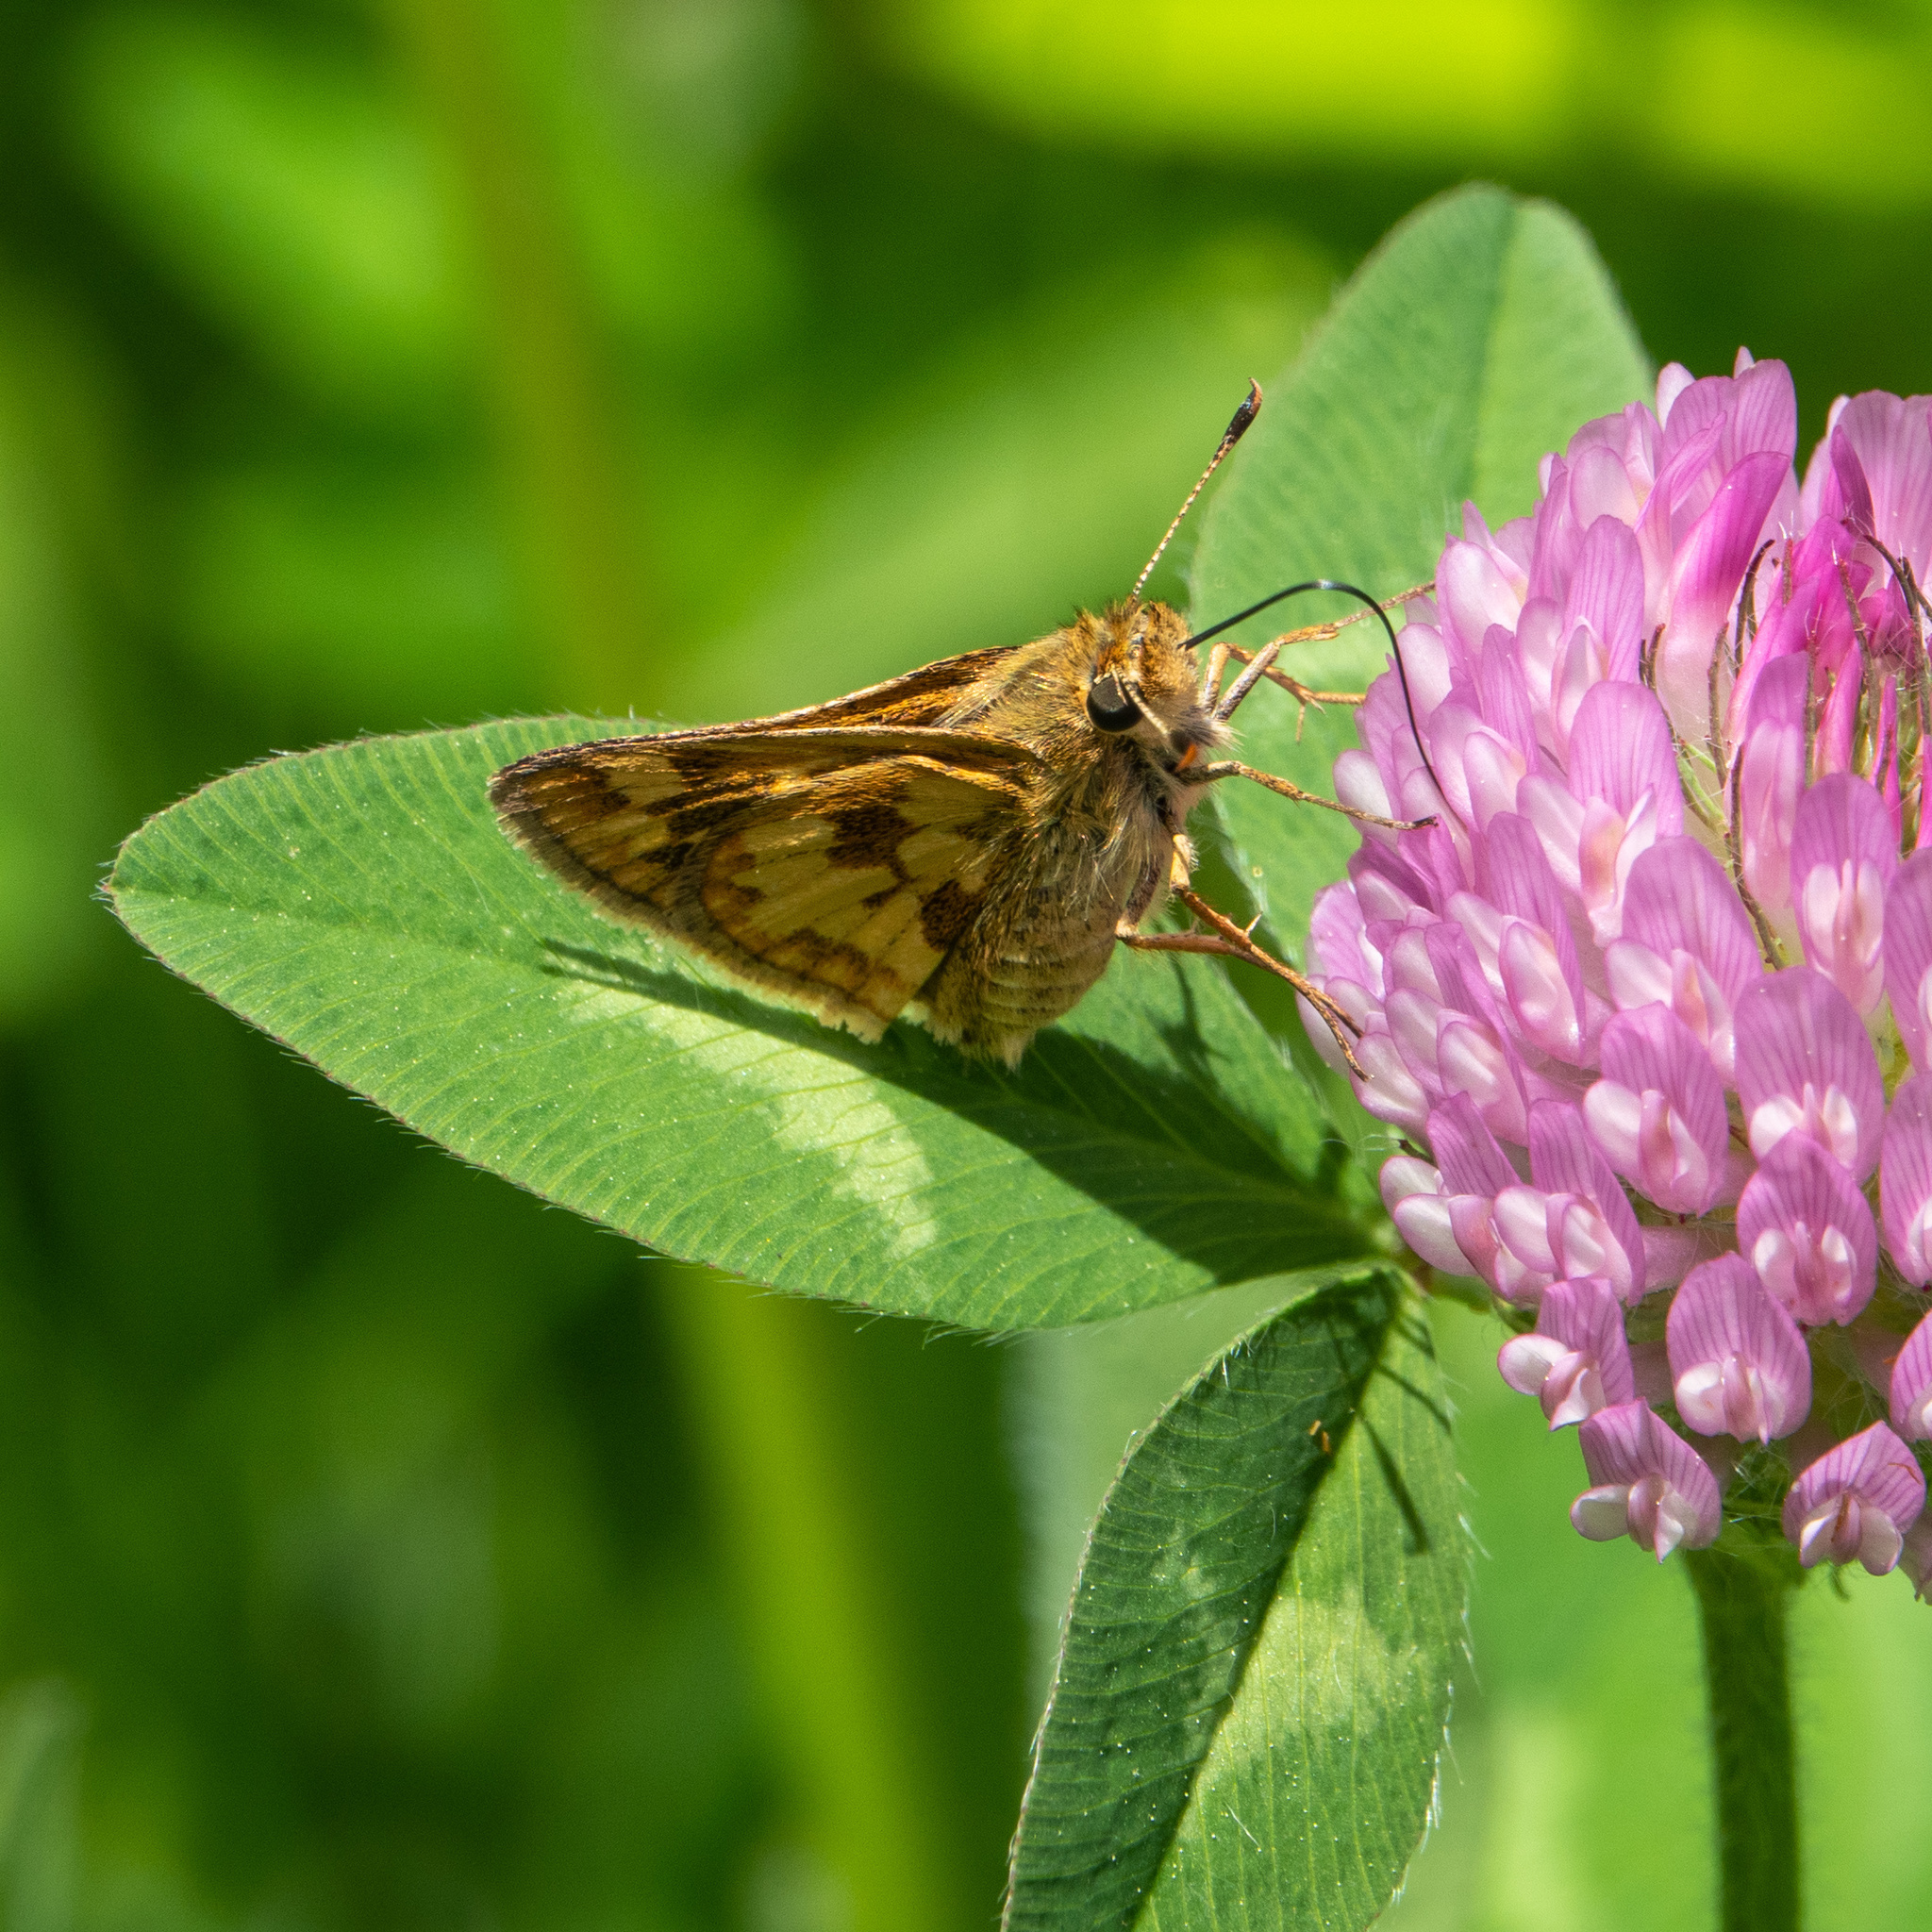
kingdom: Animalia
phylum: Arthropoda
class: Insecta
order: Lepidoptera
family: Hesperiidae
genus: Polites
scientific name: Polites coras
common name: Peck's skipper
